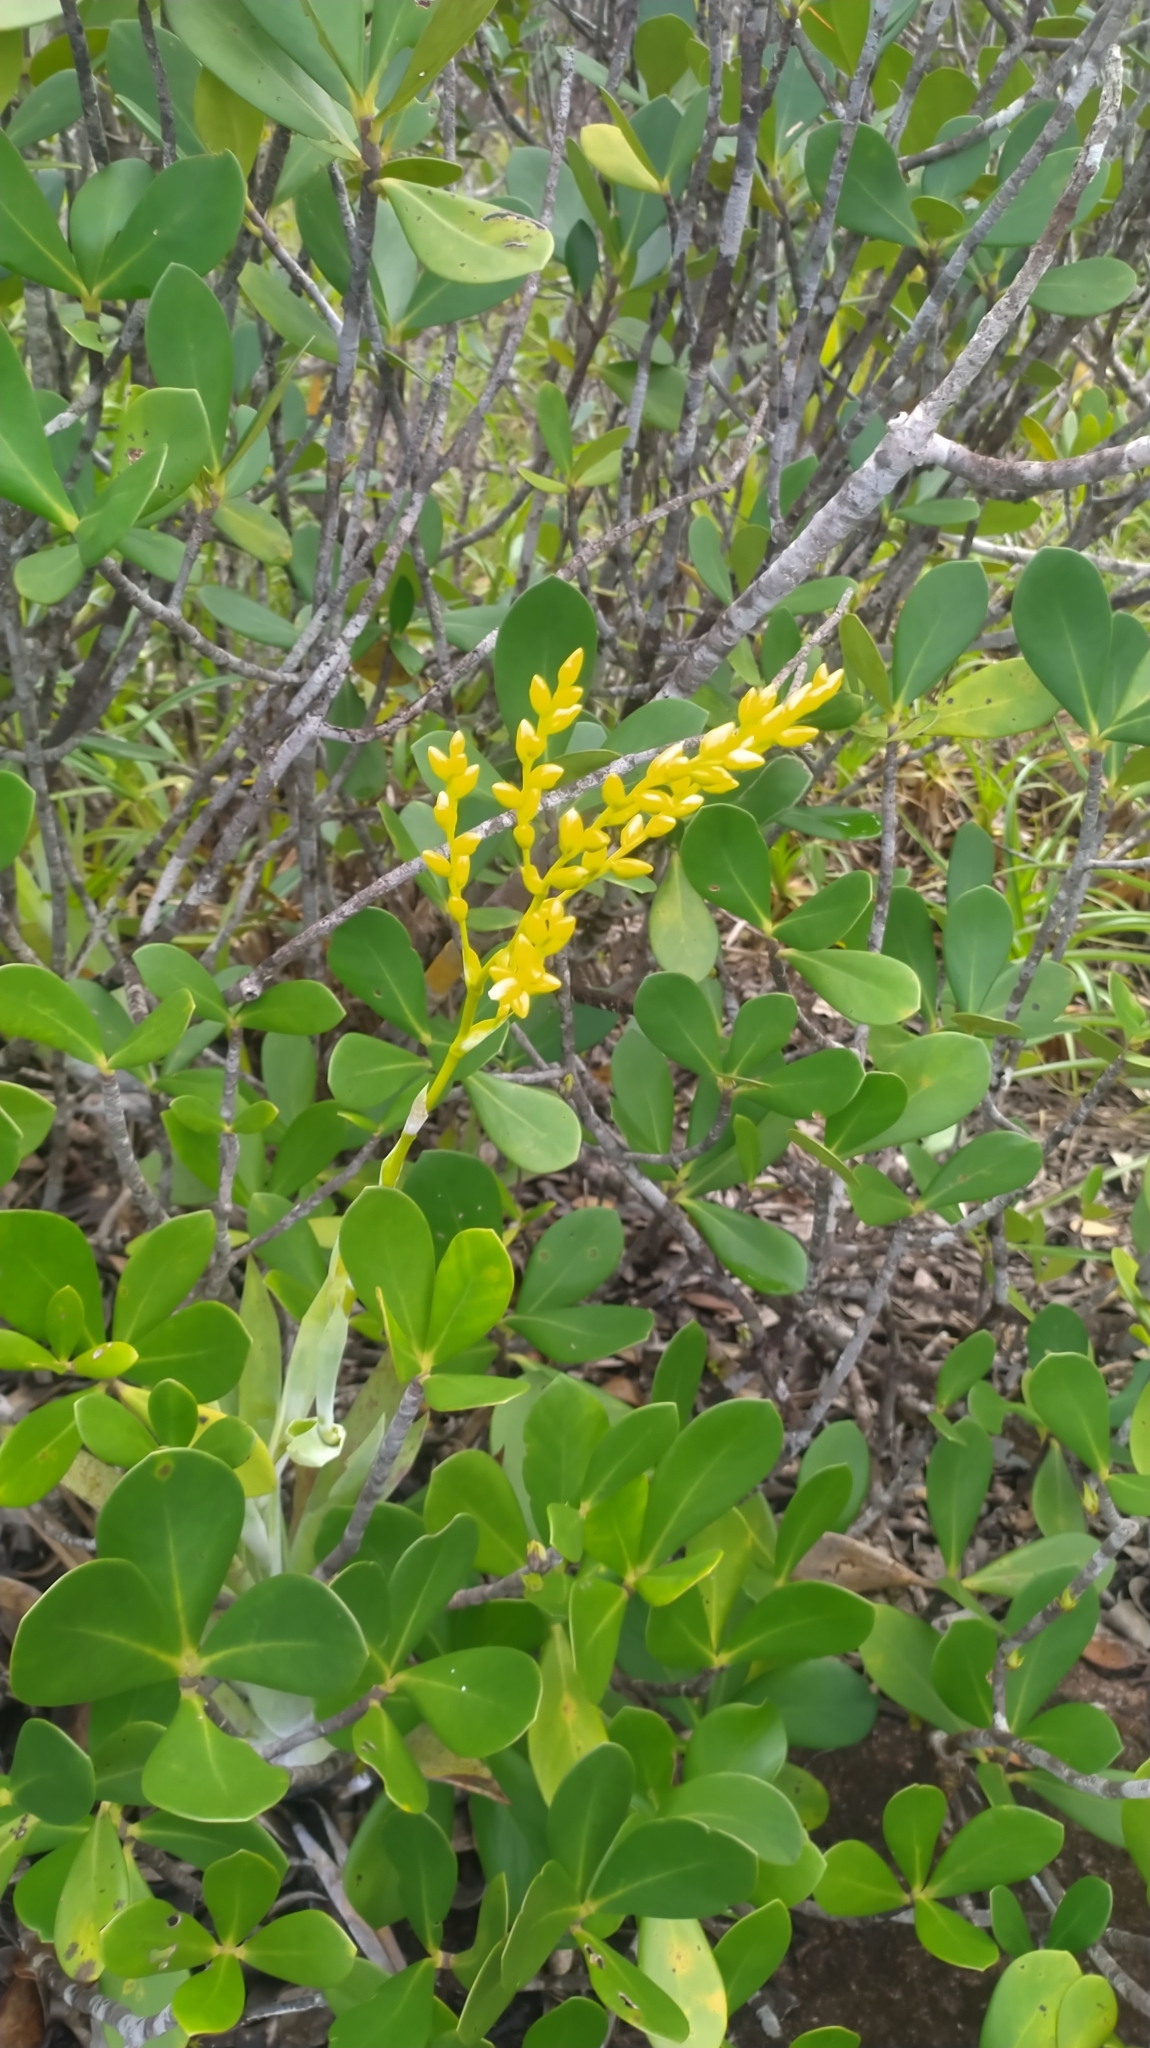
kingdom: Plantae
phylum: Tracheophyta
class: Liliopsida
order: Poales
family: Bromeliaceae
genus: Catopsis
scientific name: Catopsis berteroniana
